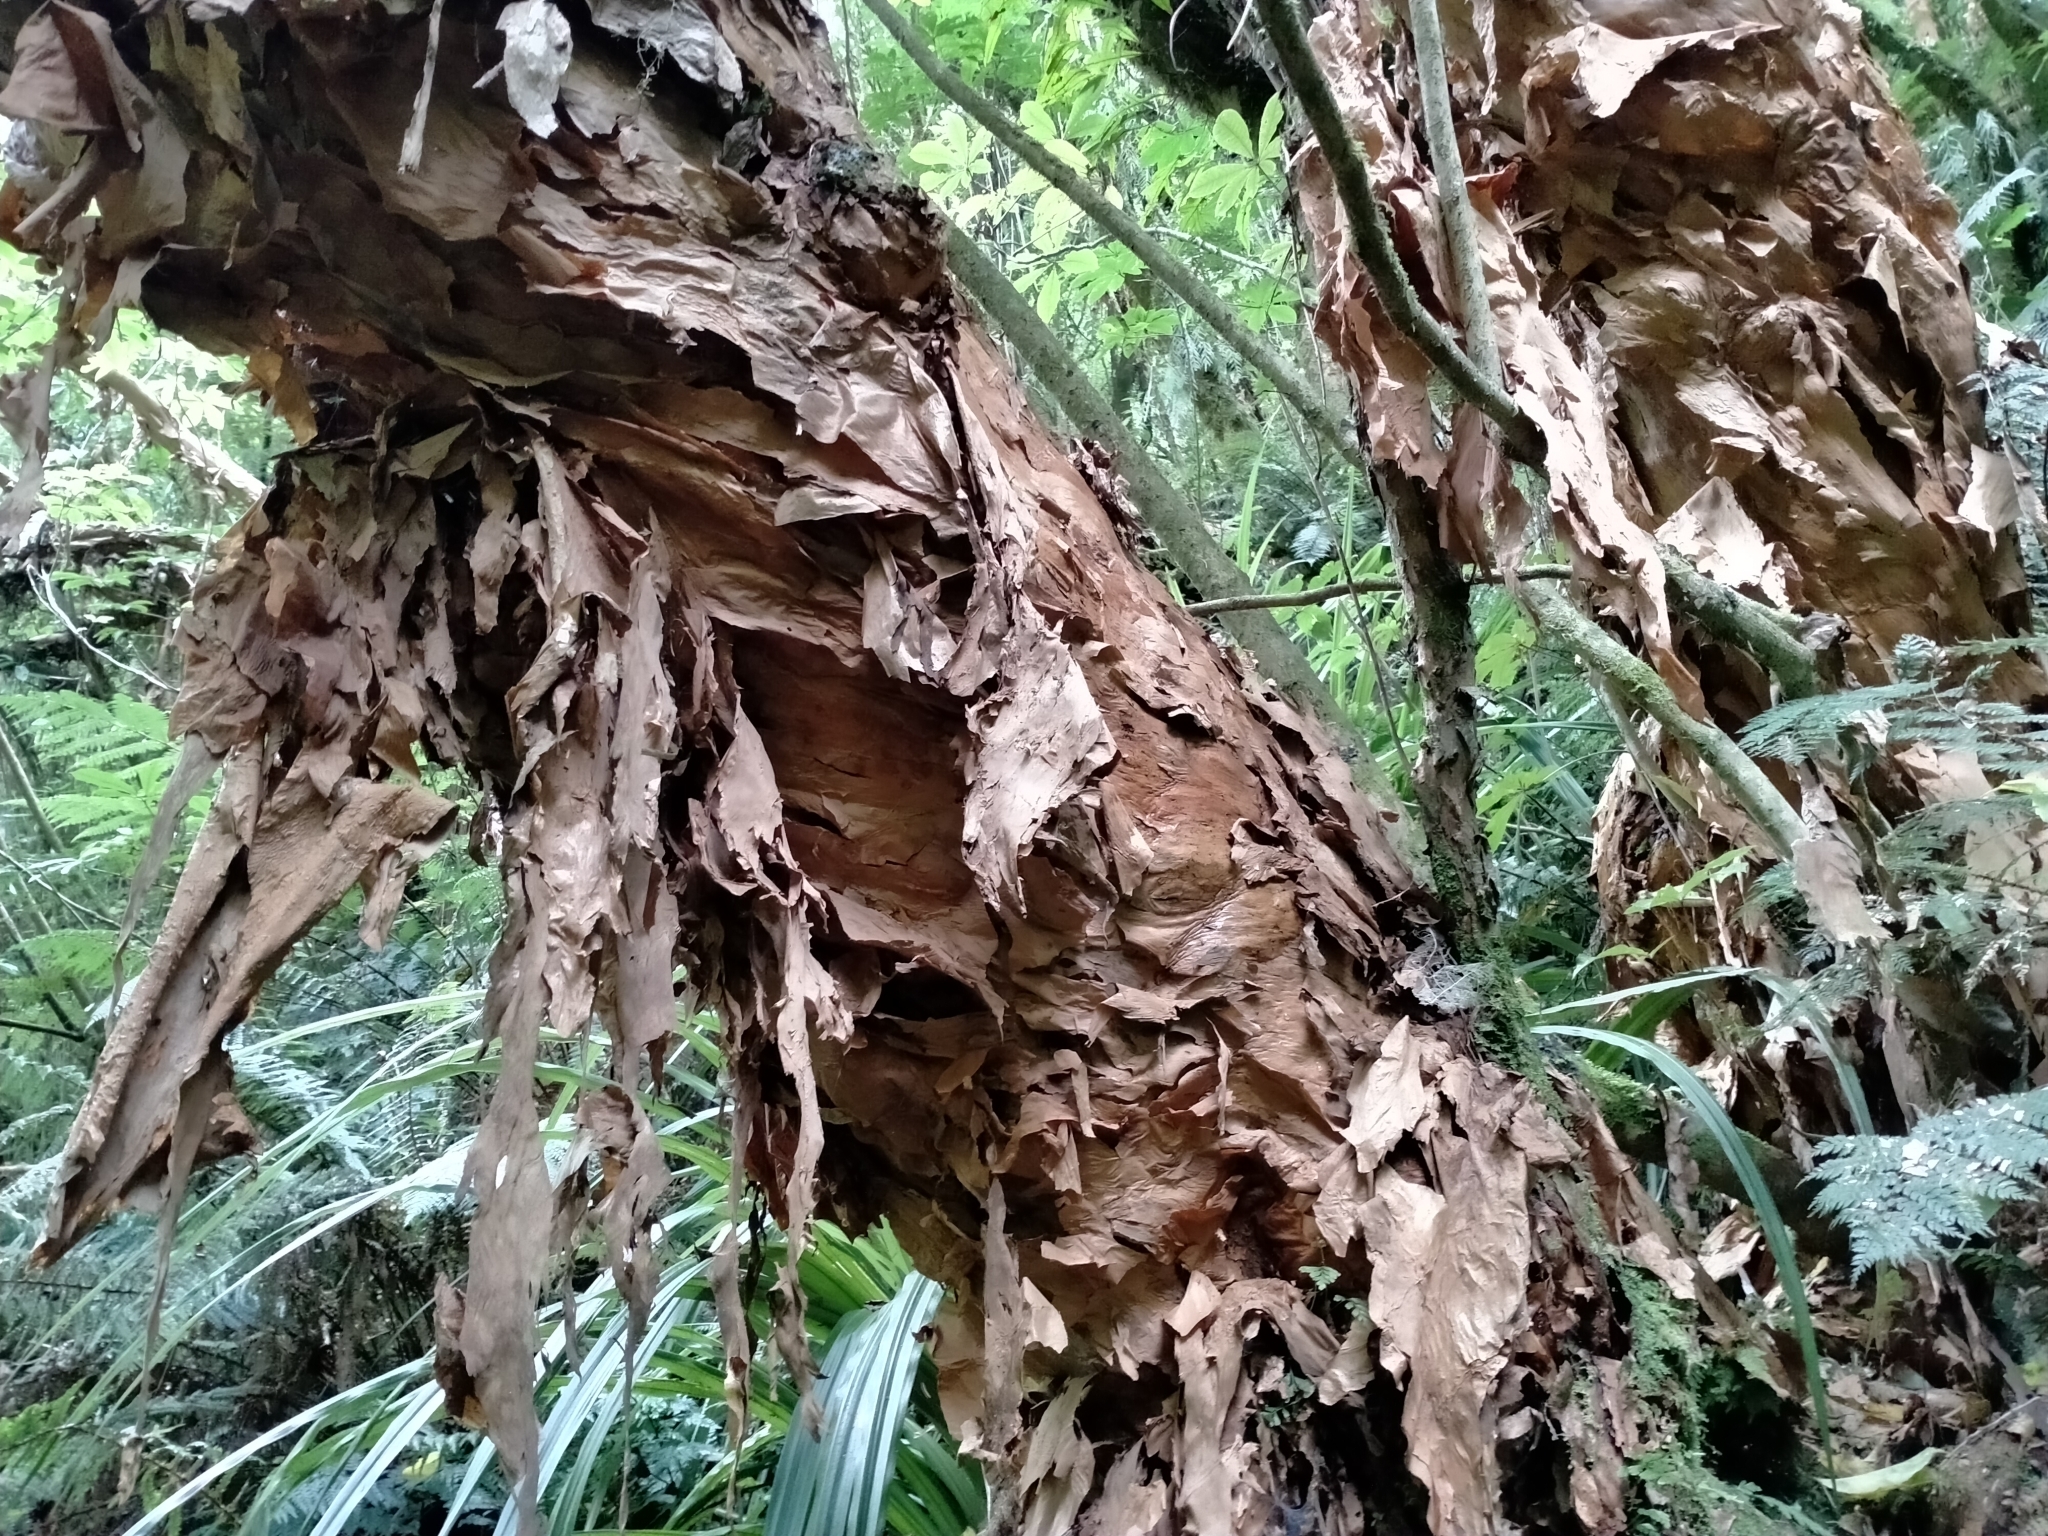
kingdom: Plantae
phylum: Tracheophyta
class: Magnoliopsida
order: Myrtales
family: Onagraceae
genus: Fuchsia
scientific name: Fuchsia excorticata
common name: Tree fuchsia
